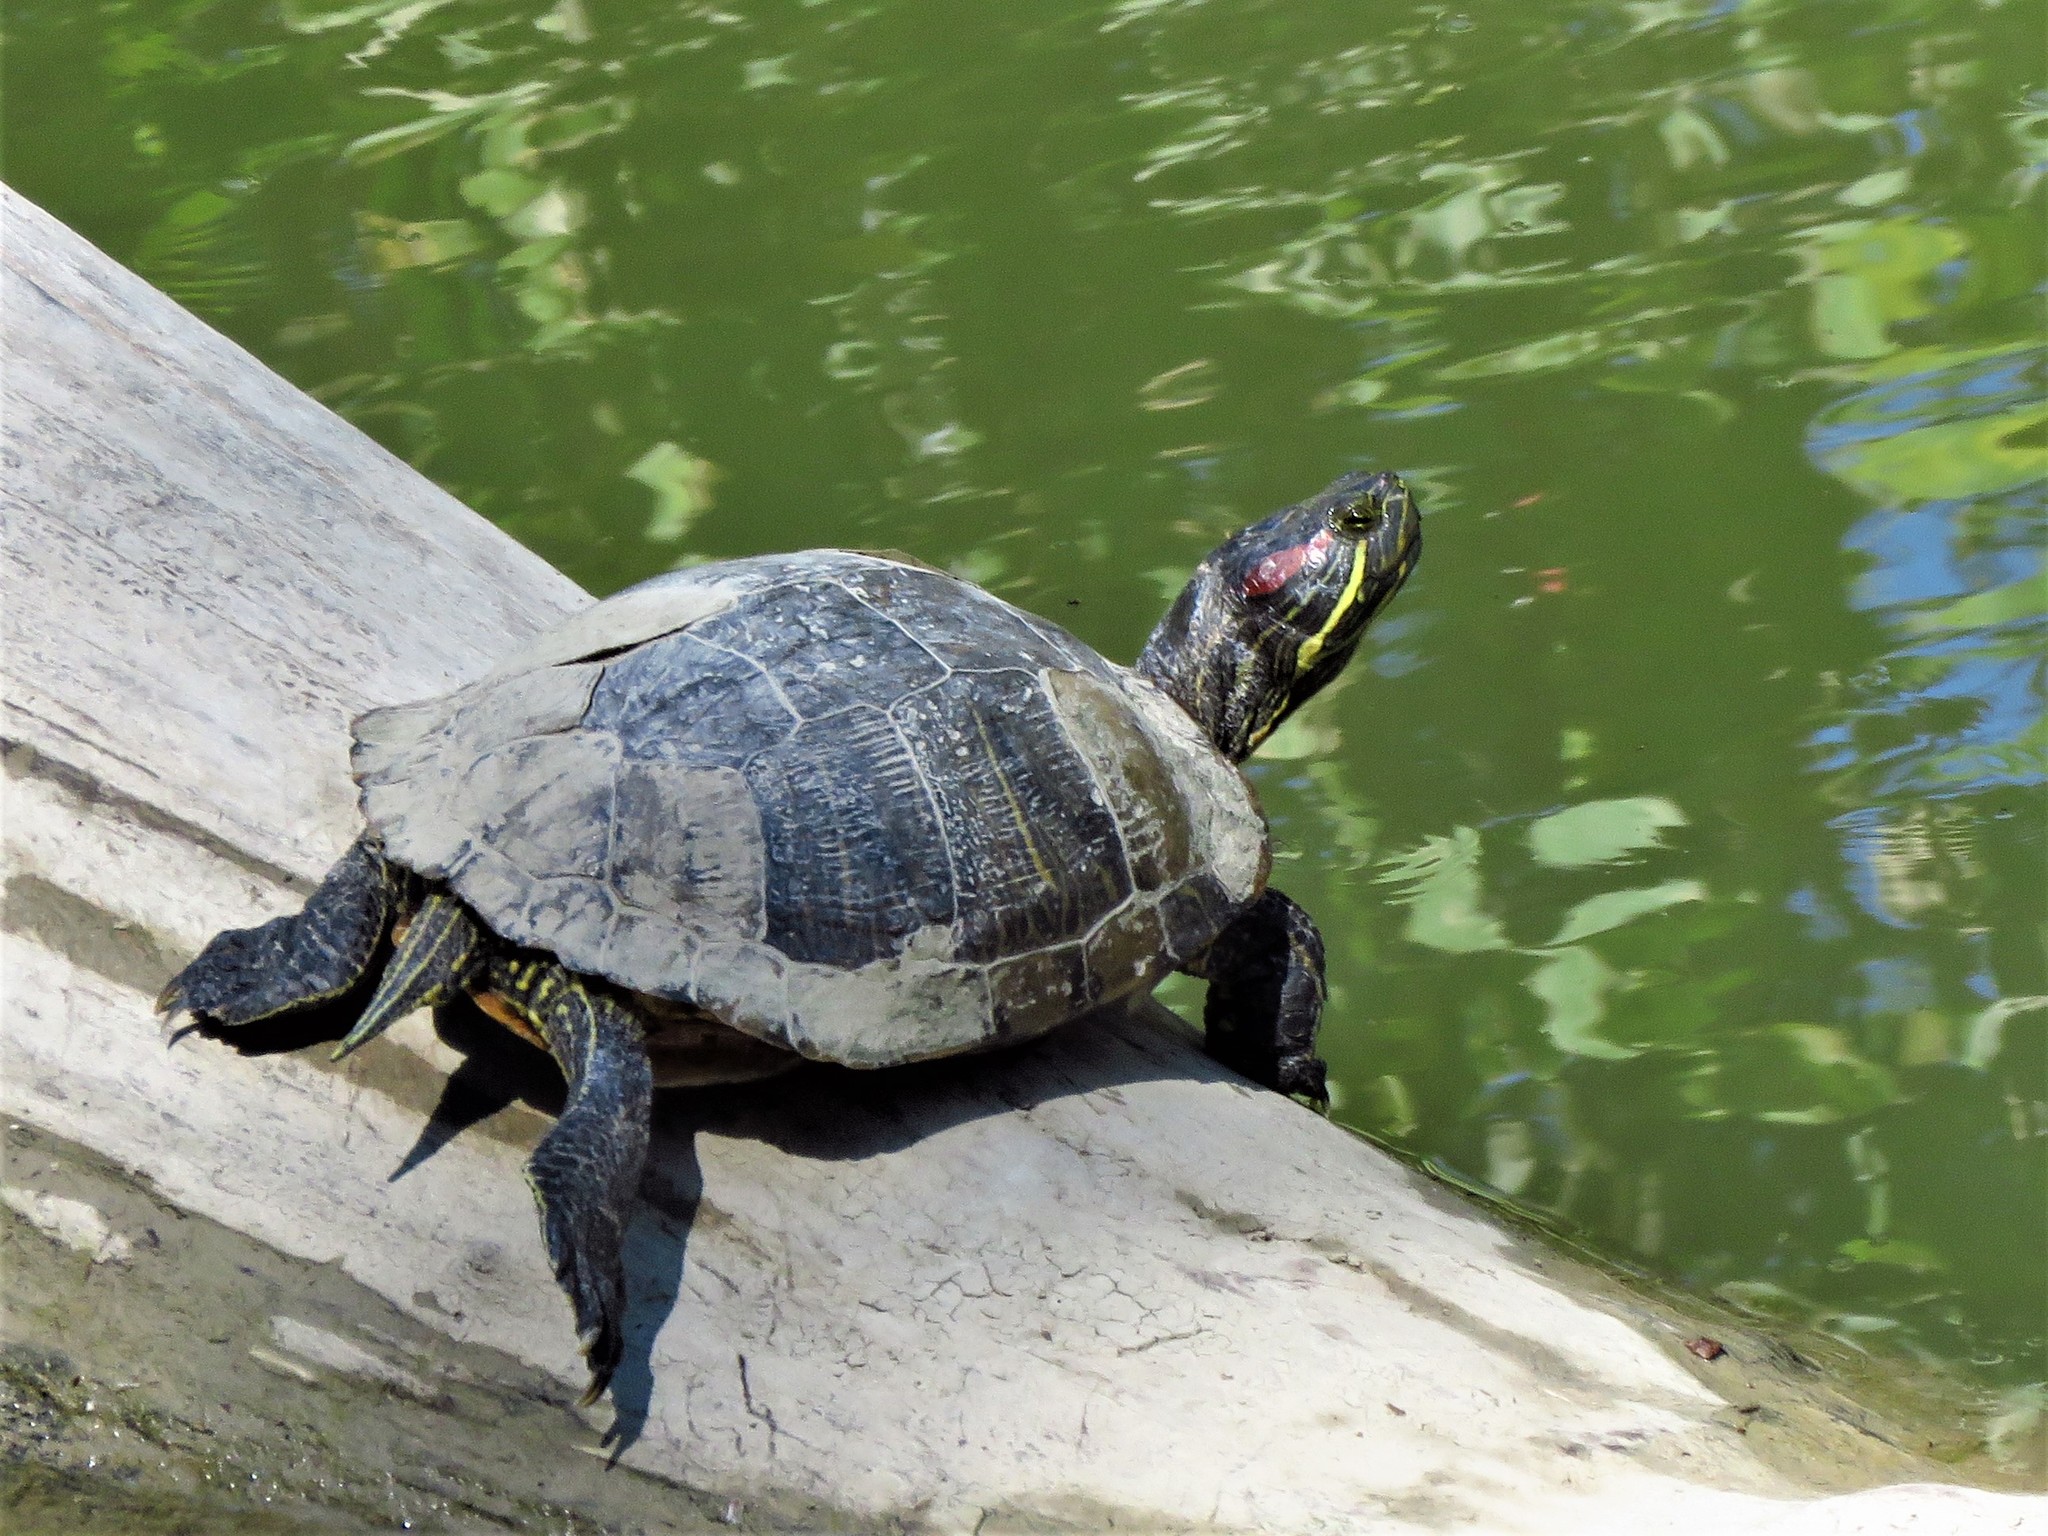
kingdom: Animalia
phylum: Chordata
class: Testudines
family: Emydidae
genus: Trachemys
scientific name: Trachemys scripta
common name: Slider
